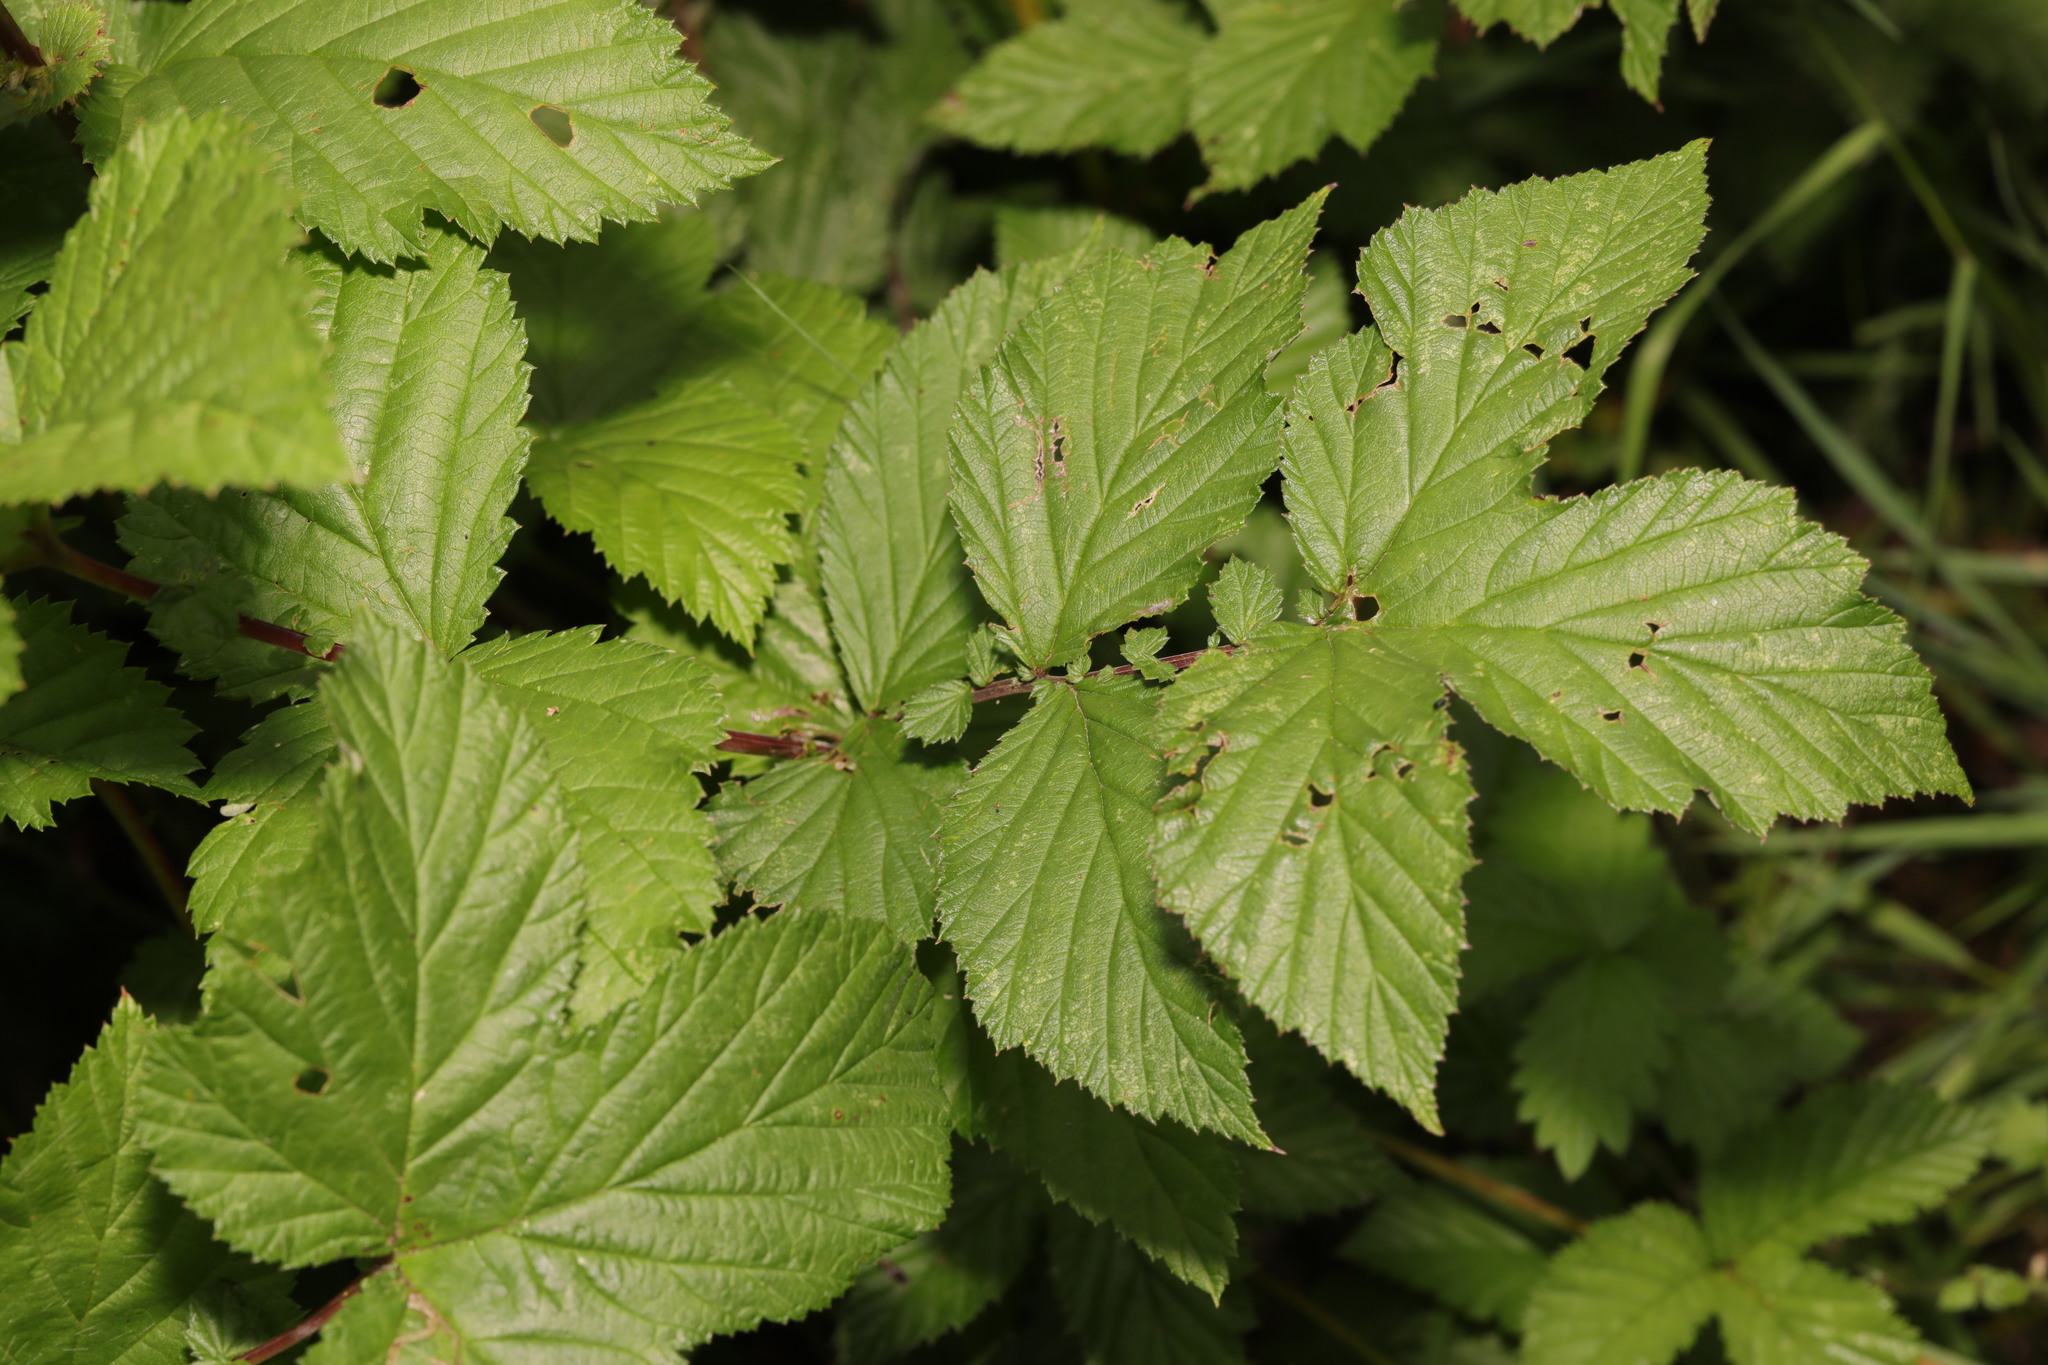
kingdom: Plantae
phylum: Tracheophyta
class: Magnoliopsida
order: Rosales
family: Rosaceae
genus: Filipendula
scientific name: Filipendula ulmaria
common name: Meadowsweet
